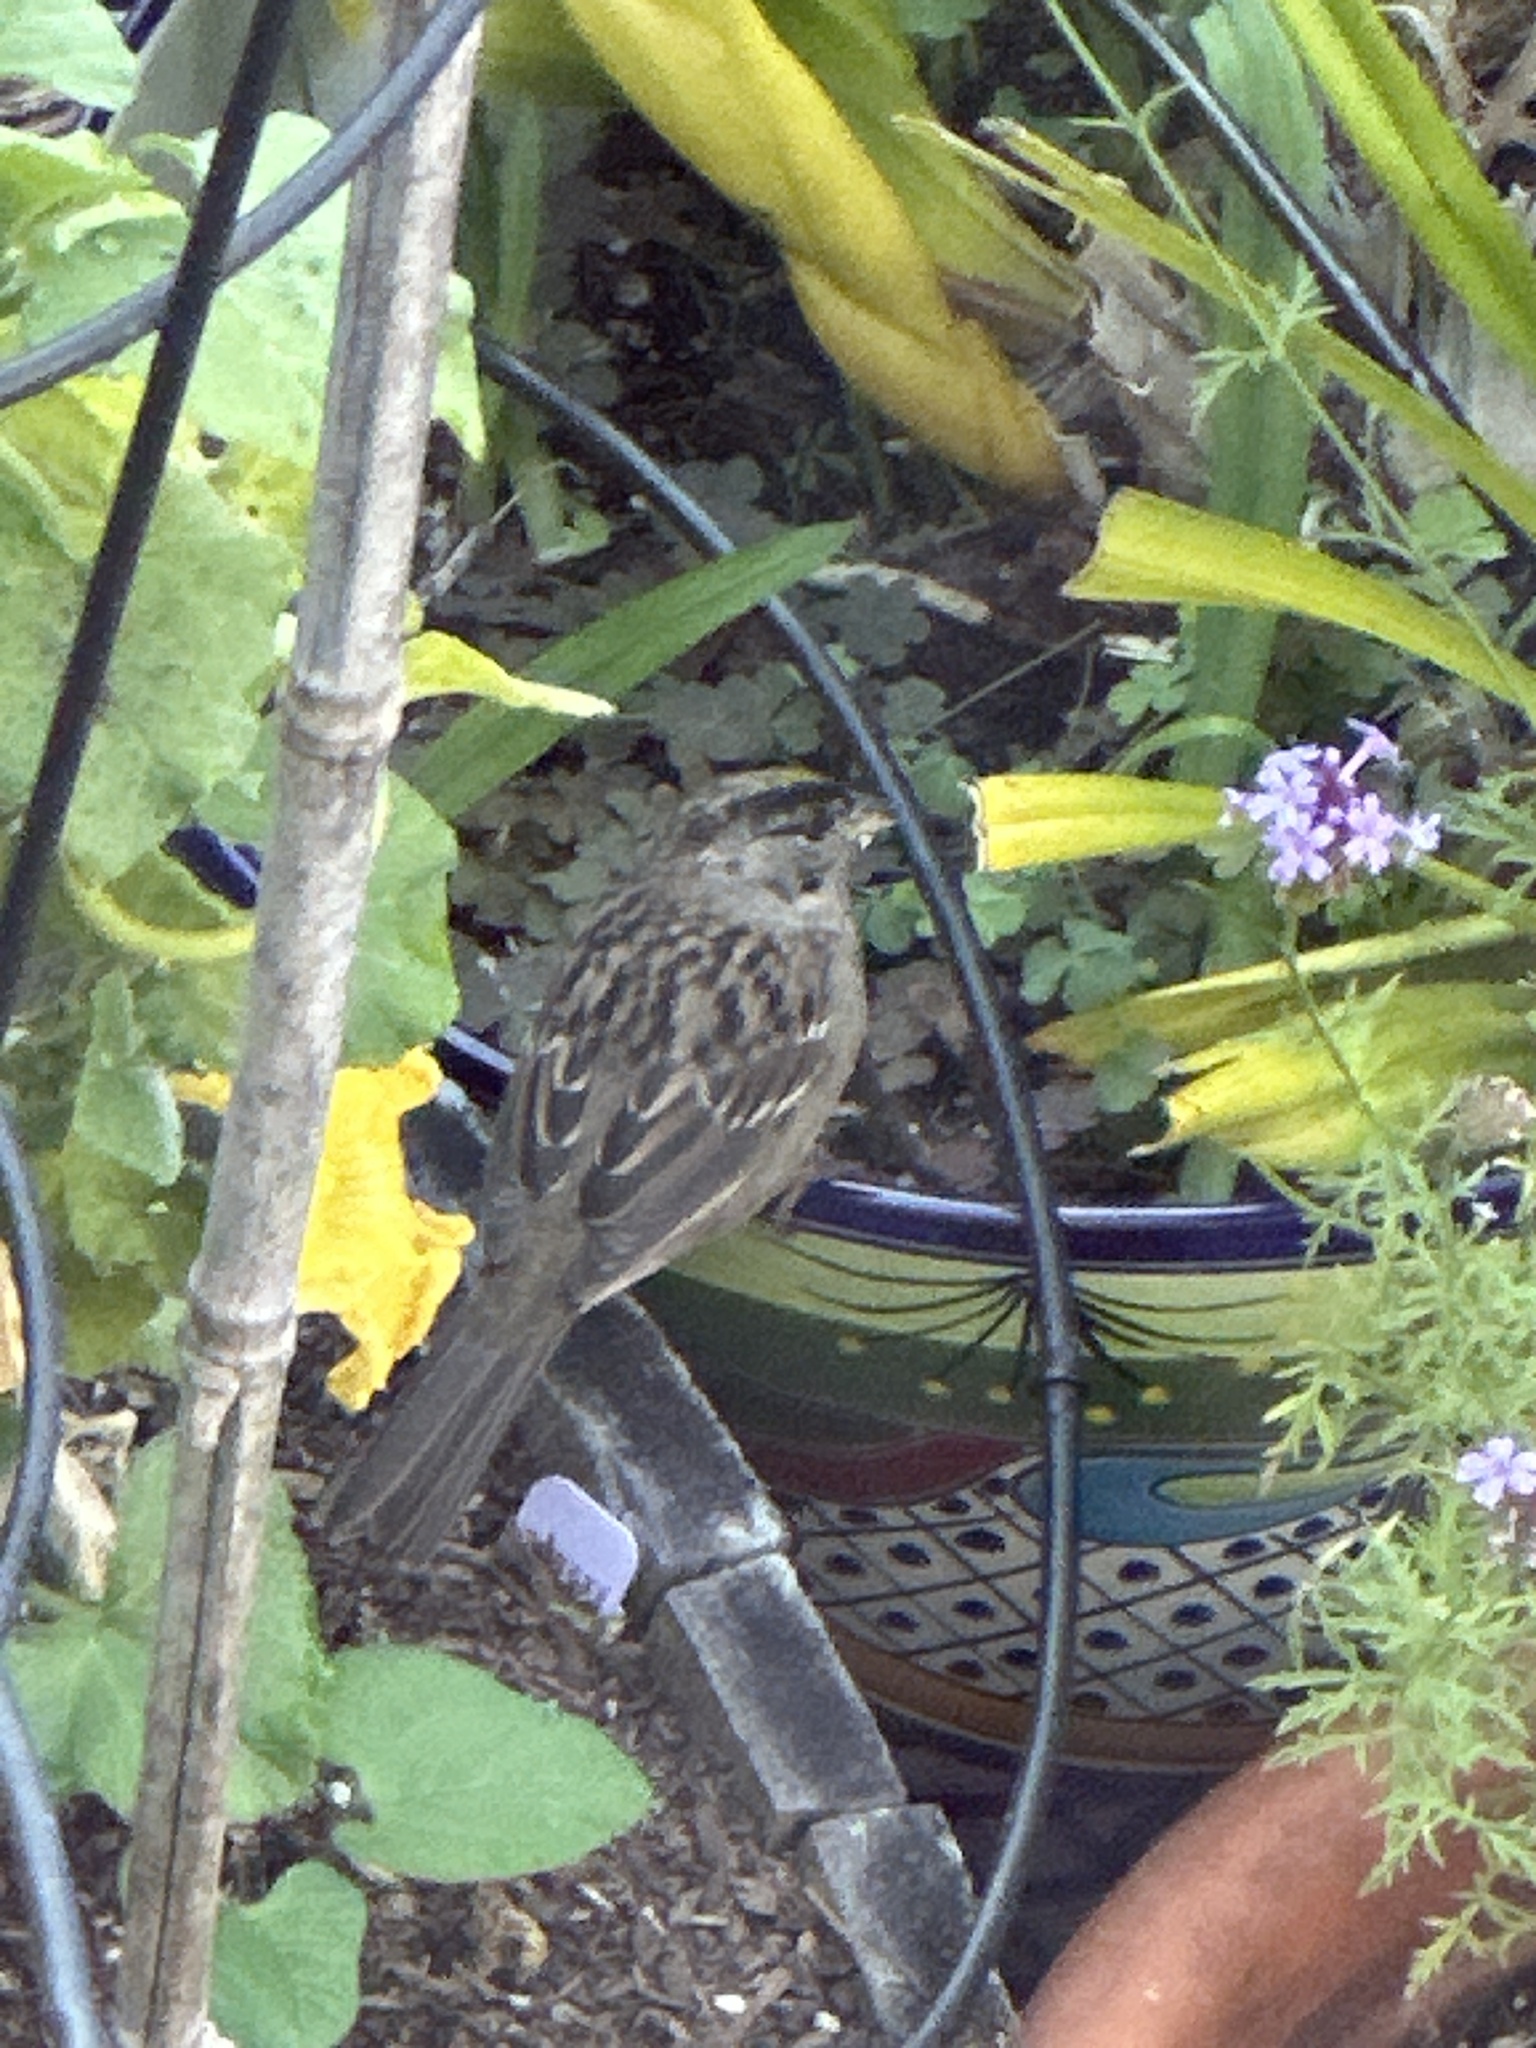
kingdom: Animalia
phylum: Chordata
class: Aves
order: Passeriformes
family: Passerellidae
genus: Zonotrichia
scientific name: Zonotrichia atricapilla
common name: Golden-crowned sparrow
